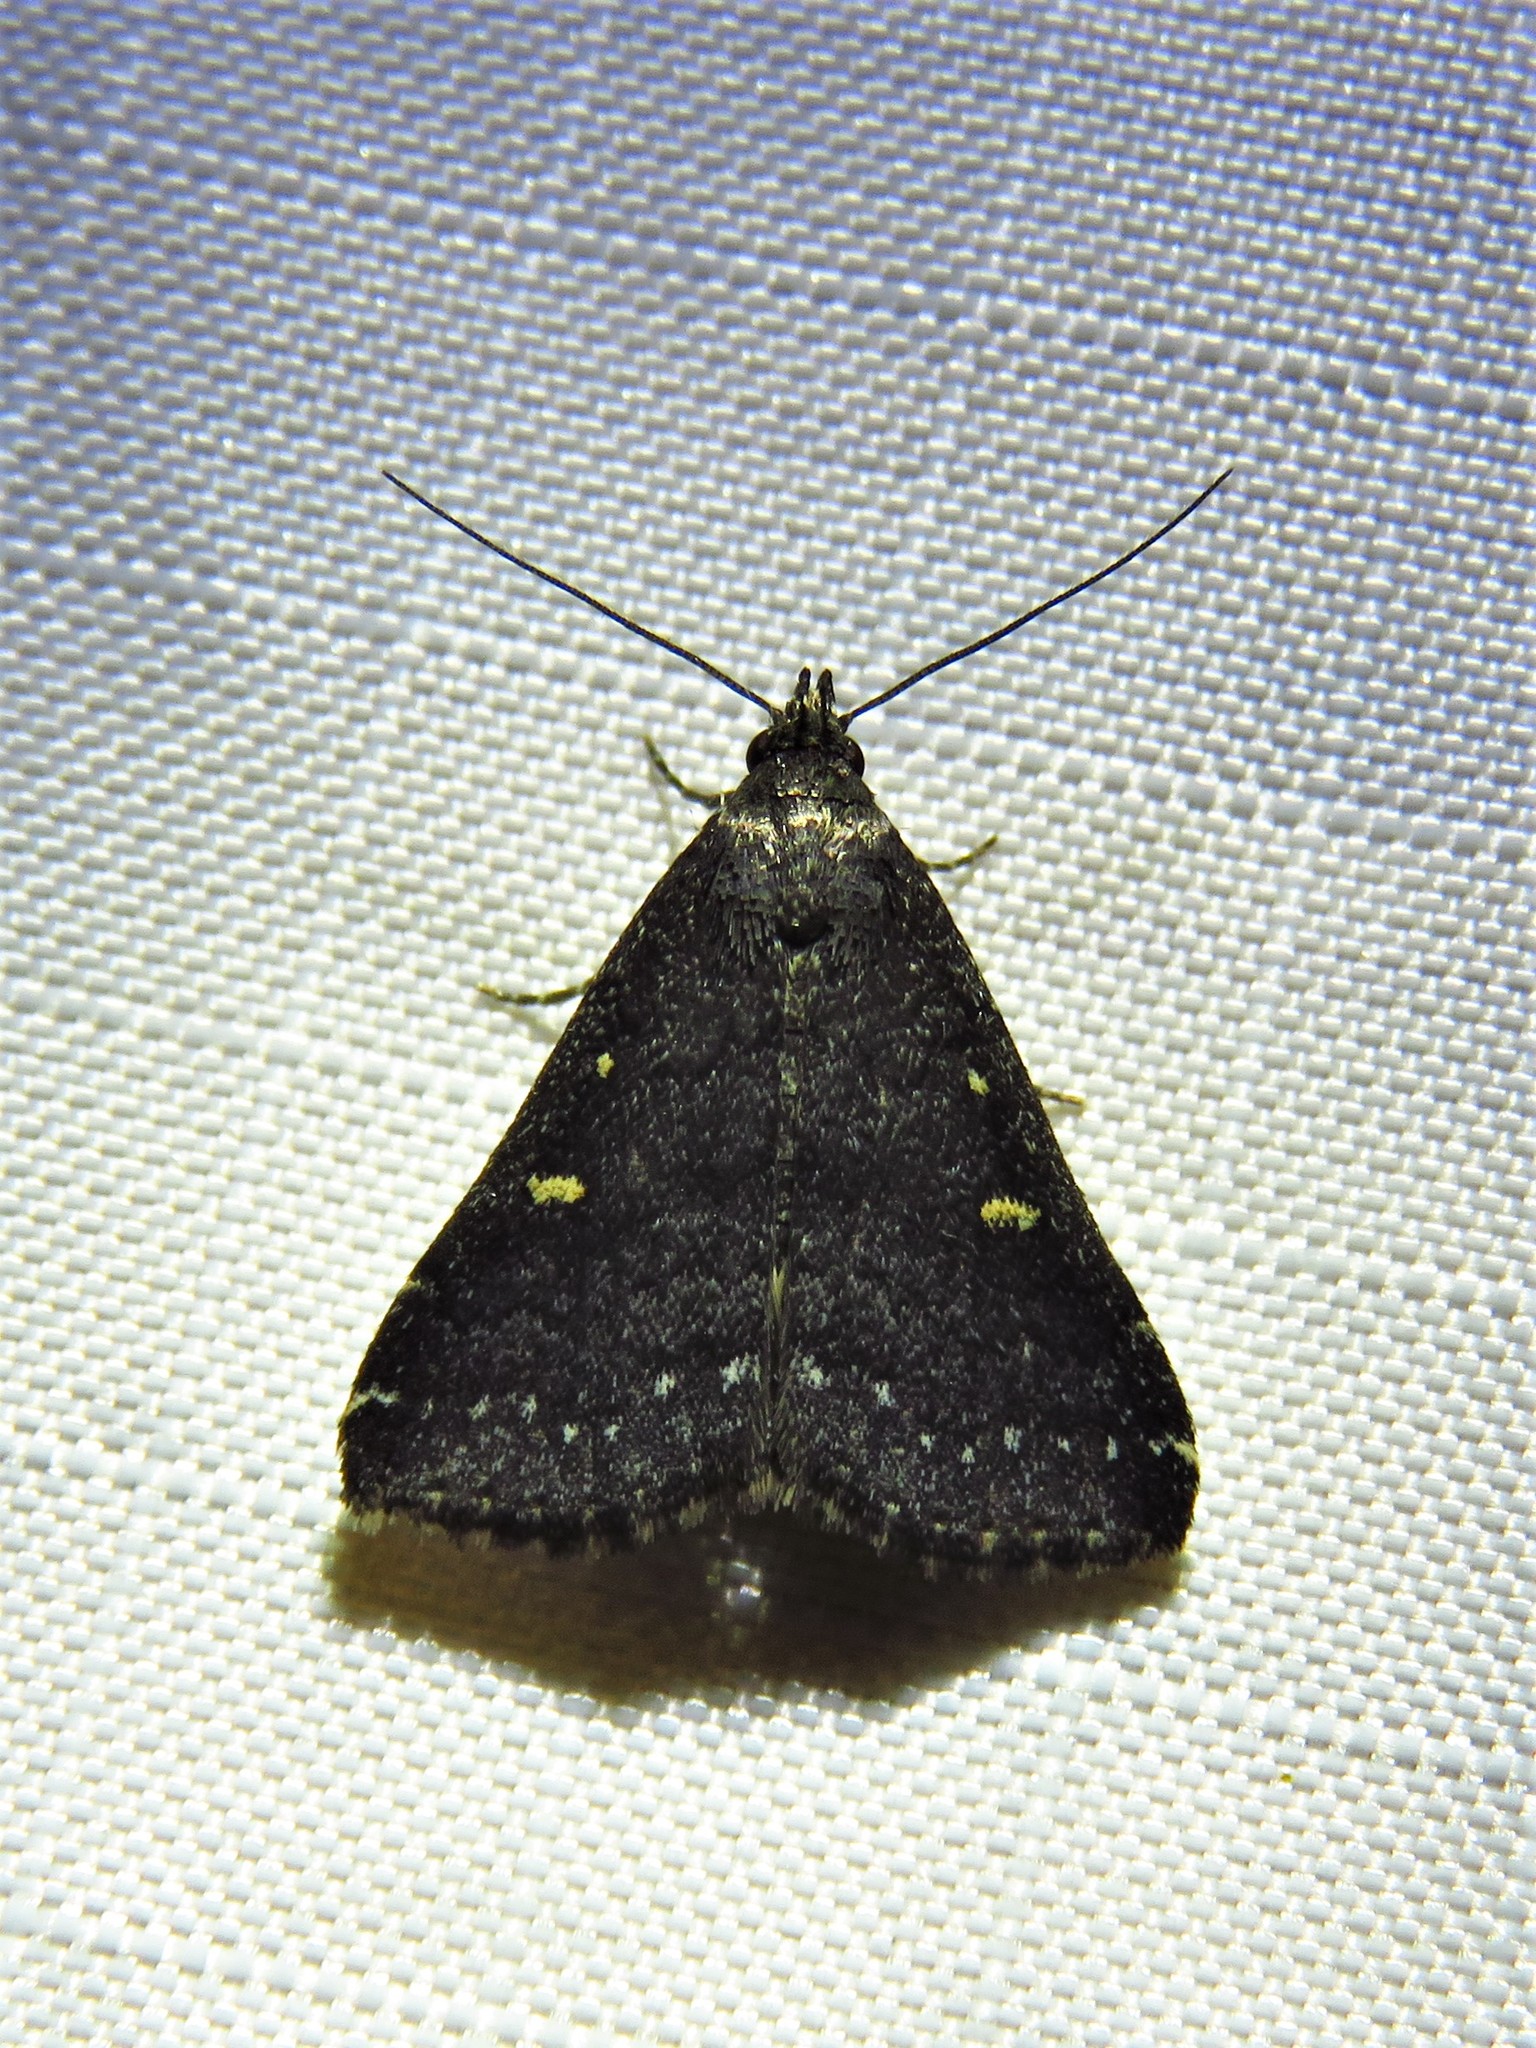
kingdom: Animalia
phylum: Arthropoda
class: Insecta
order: Lepidoptera
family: Erebidae
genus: Tetanolita
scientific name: Tetanolita mynesalis
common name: Smoky tetanolita moth
